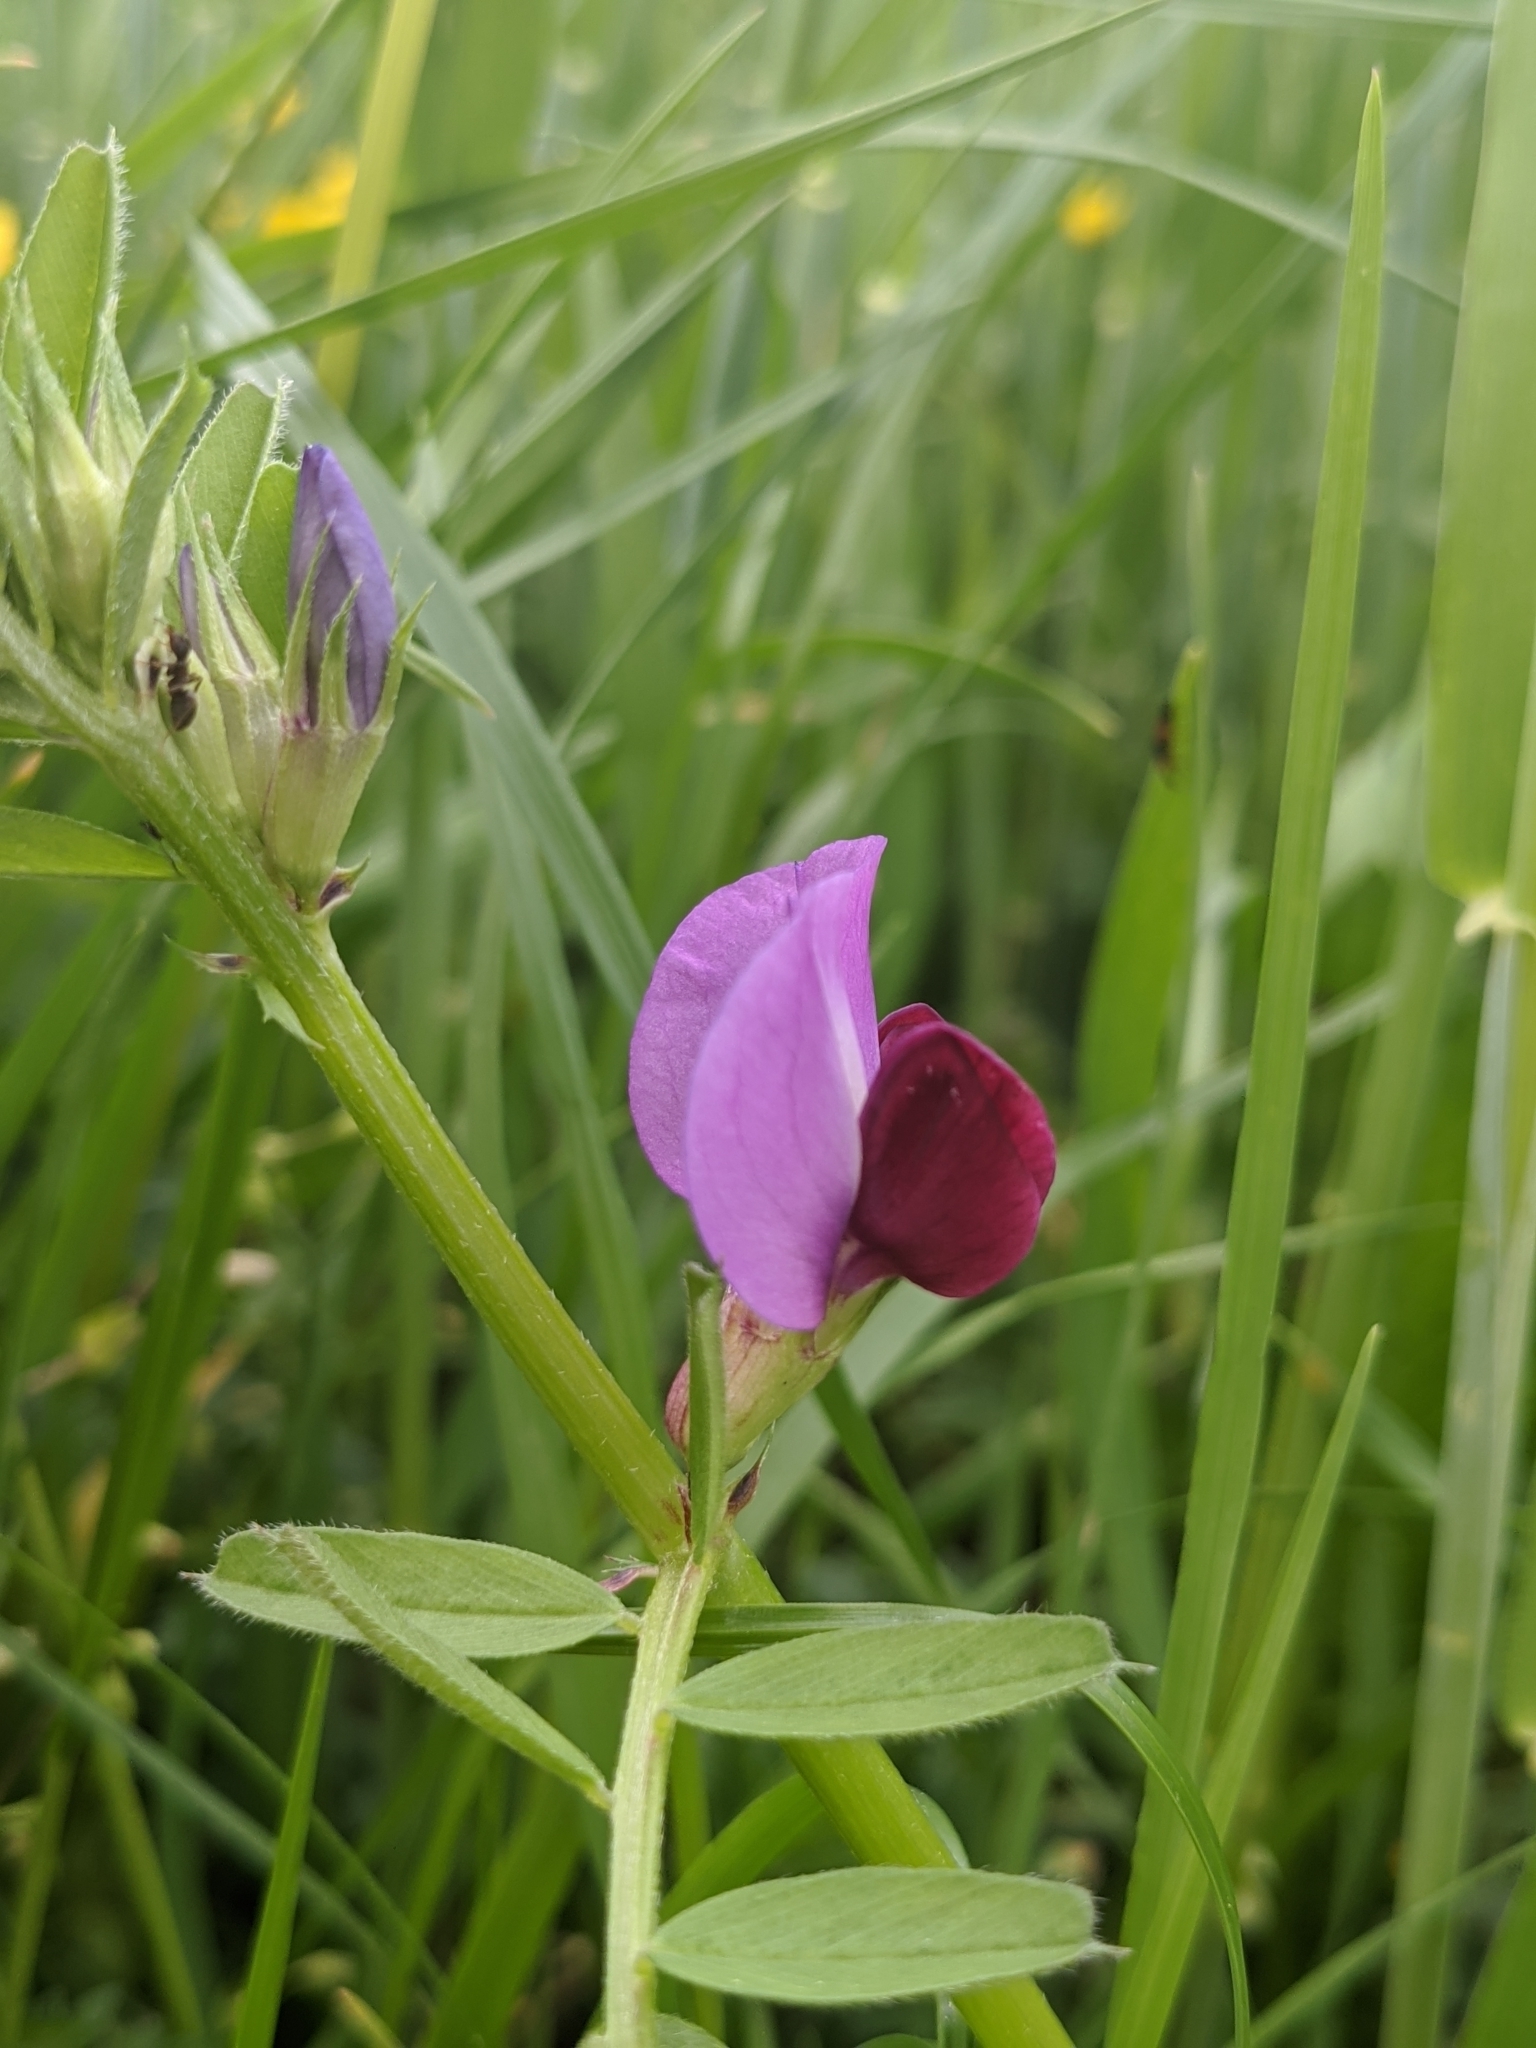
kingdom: Plantae
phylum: Tracheophyta
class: Magnoliopsida
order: Fabales
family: Fabaceae
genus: Vicia
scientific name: Vicia sativa
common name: Garden vetch
